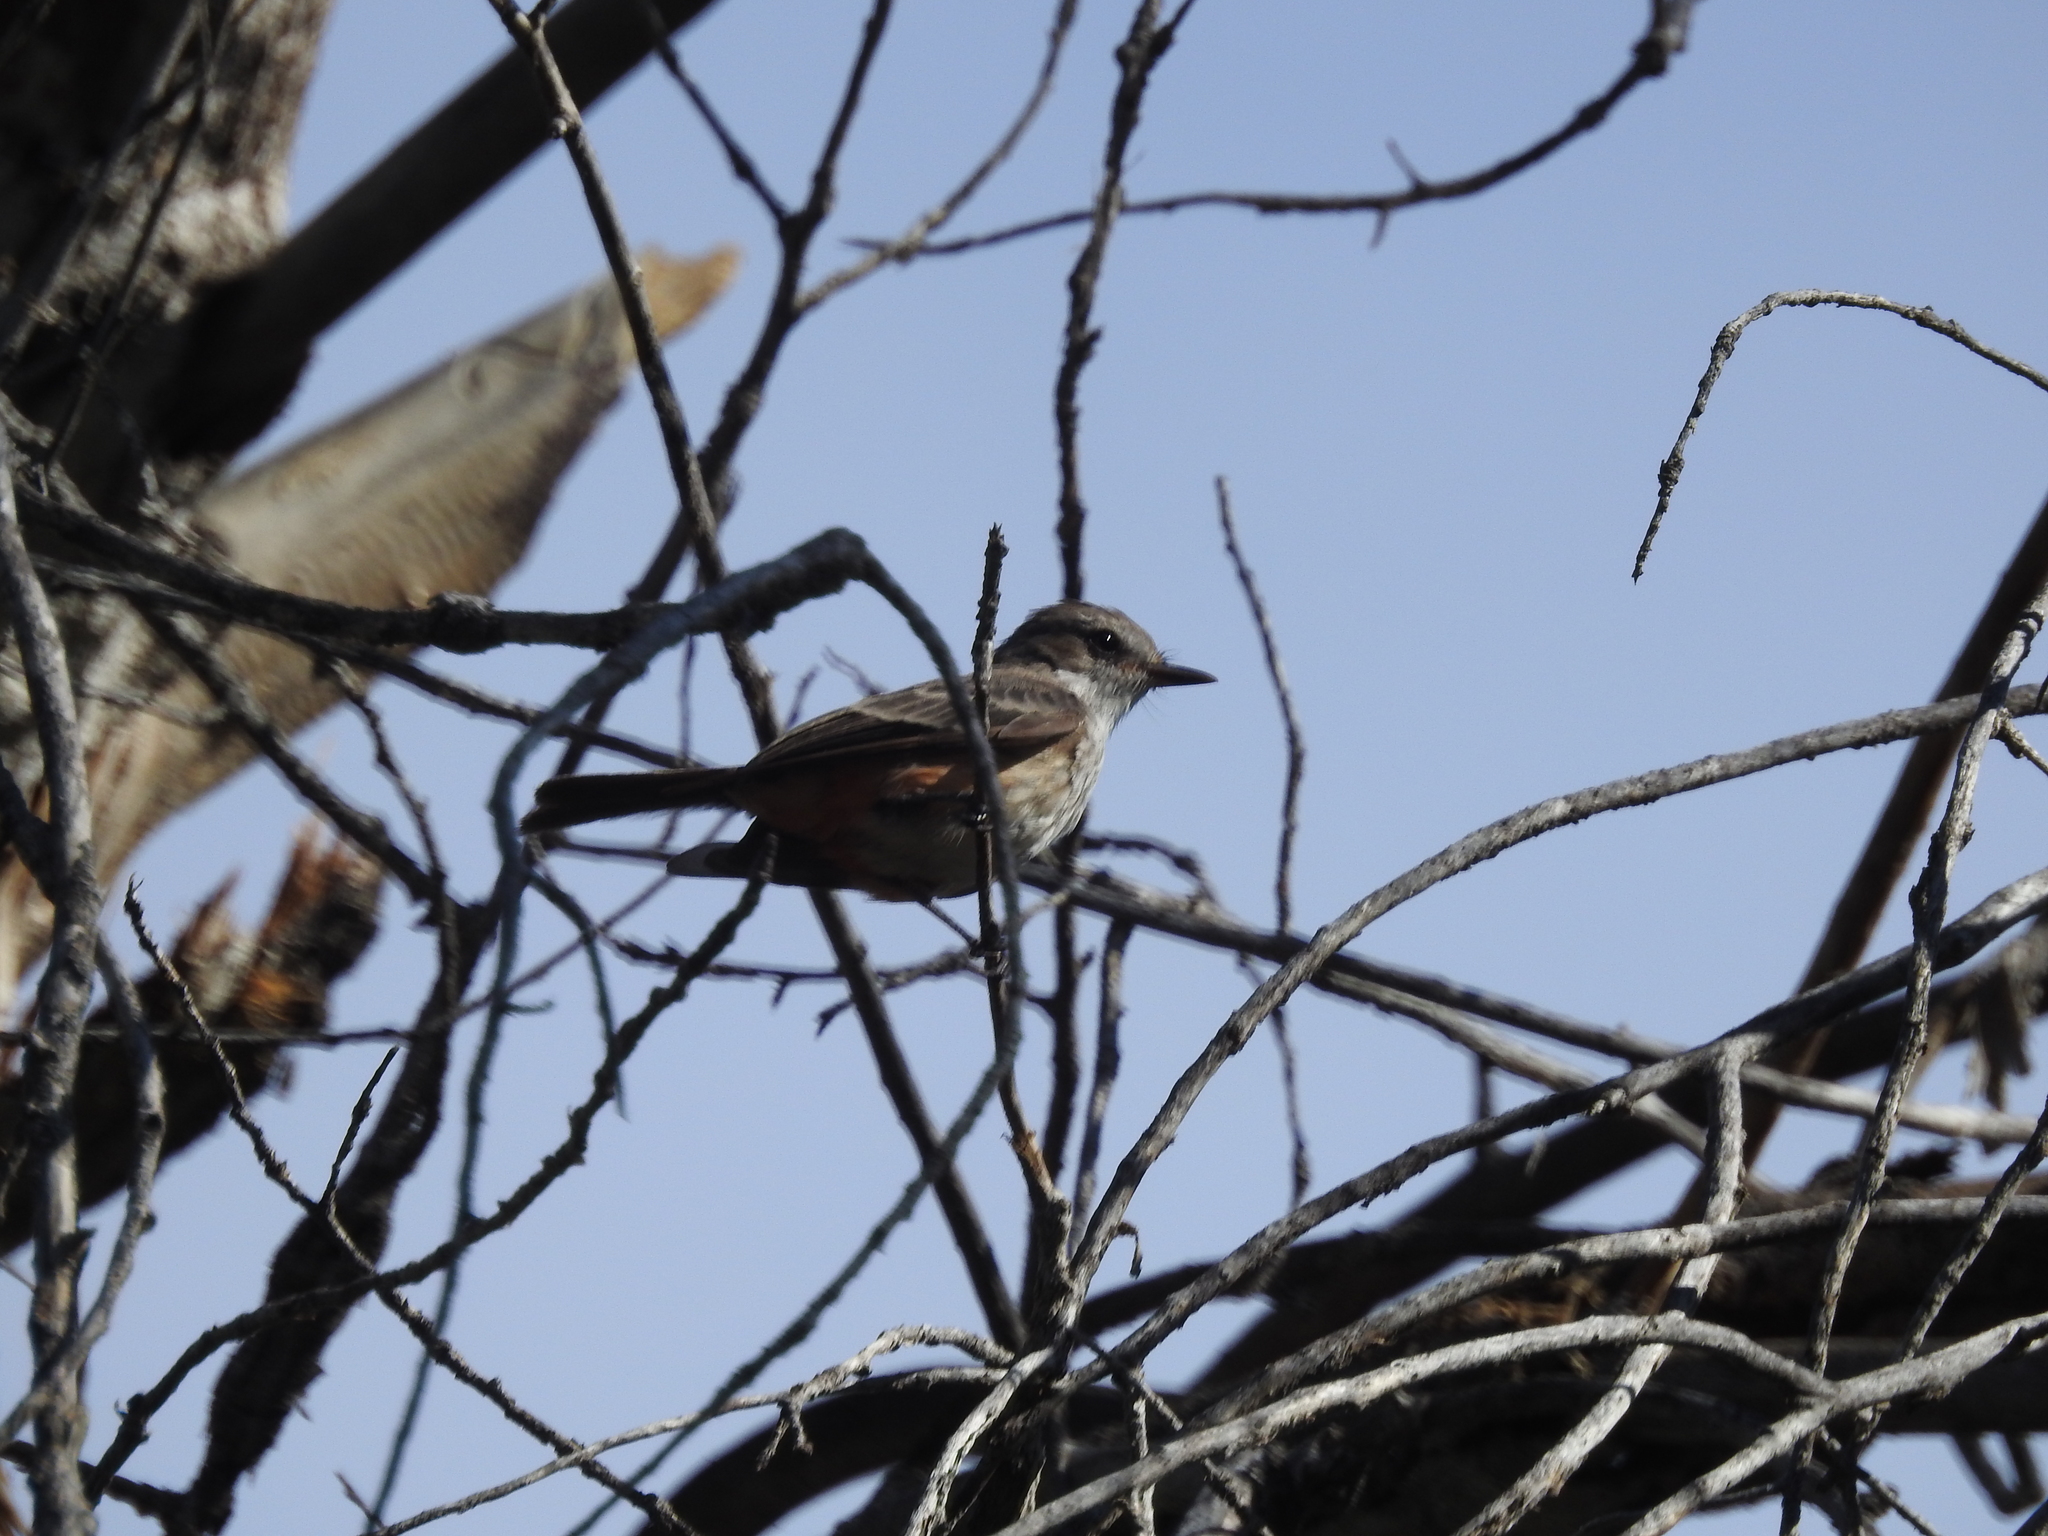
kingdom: Animalia
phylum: Chordata
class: Aves
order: Passeriformes
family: Tyrannidae
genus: Pyrocephalus
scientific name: Pyrocephalus rubinus
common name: Vermilion flycatcher
